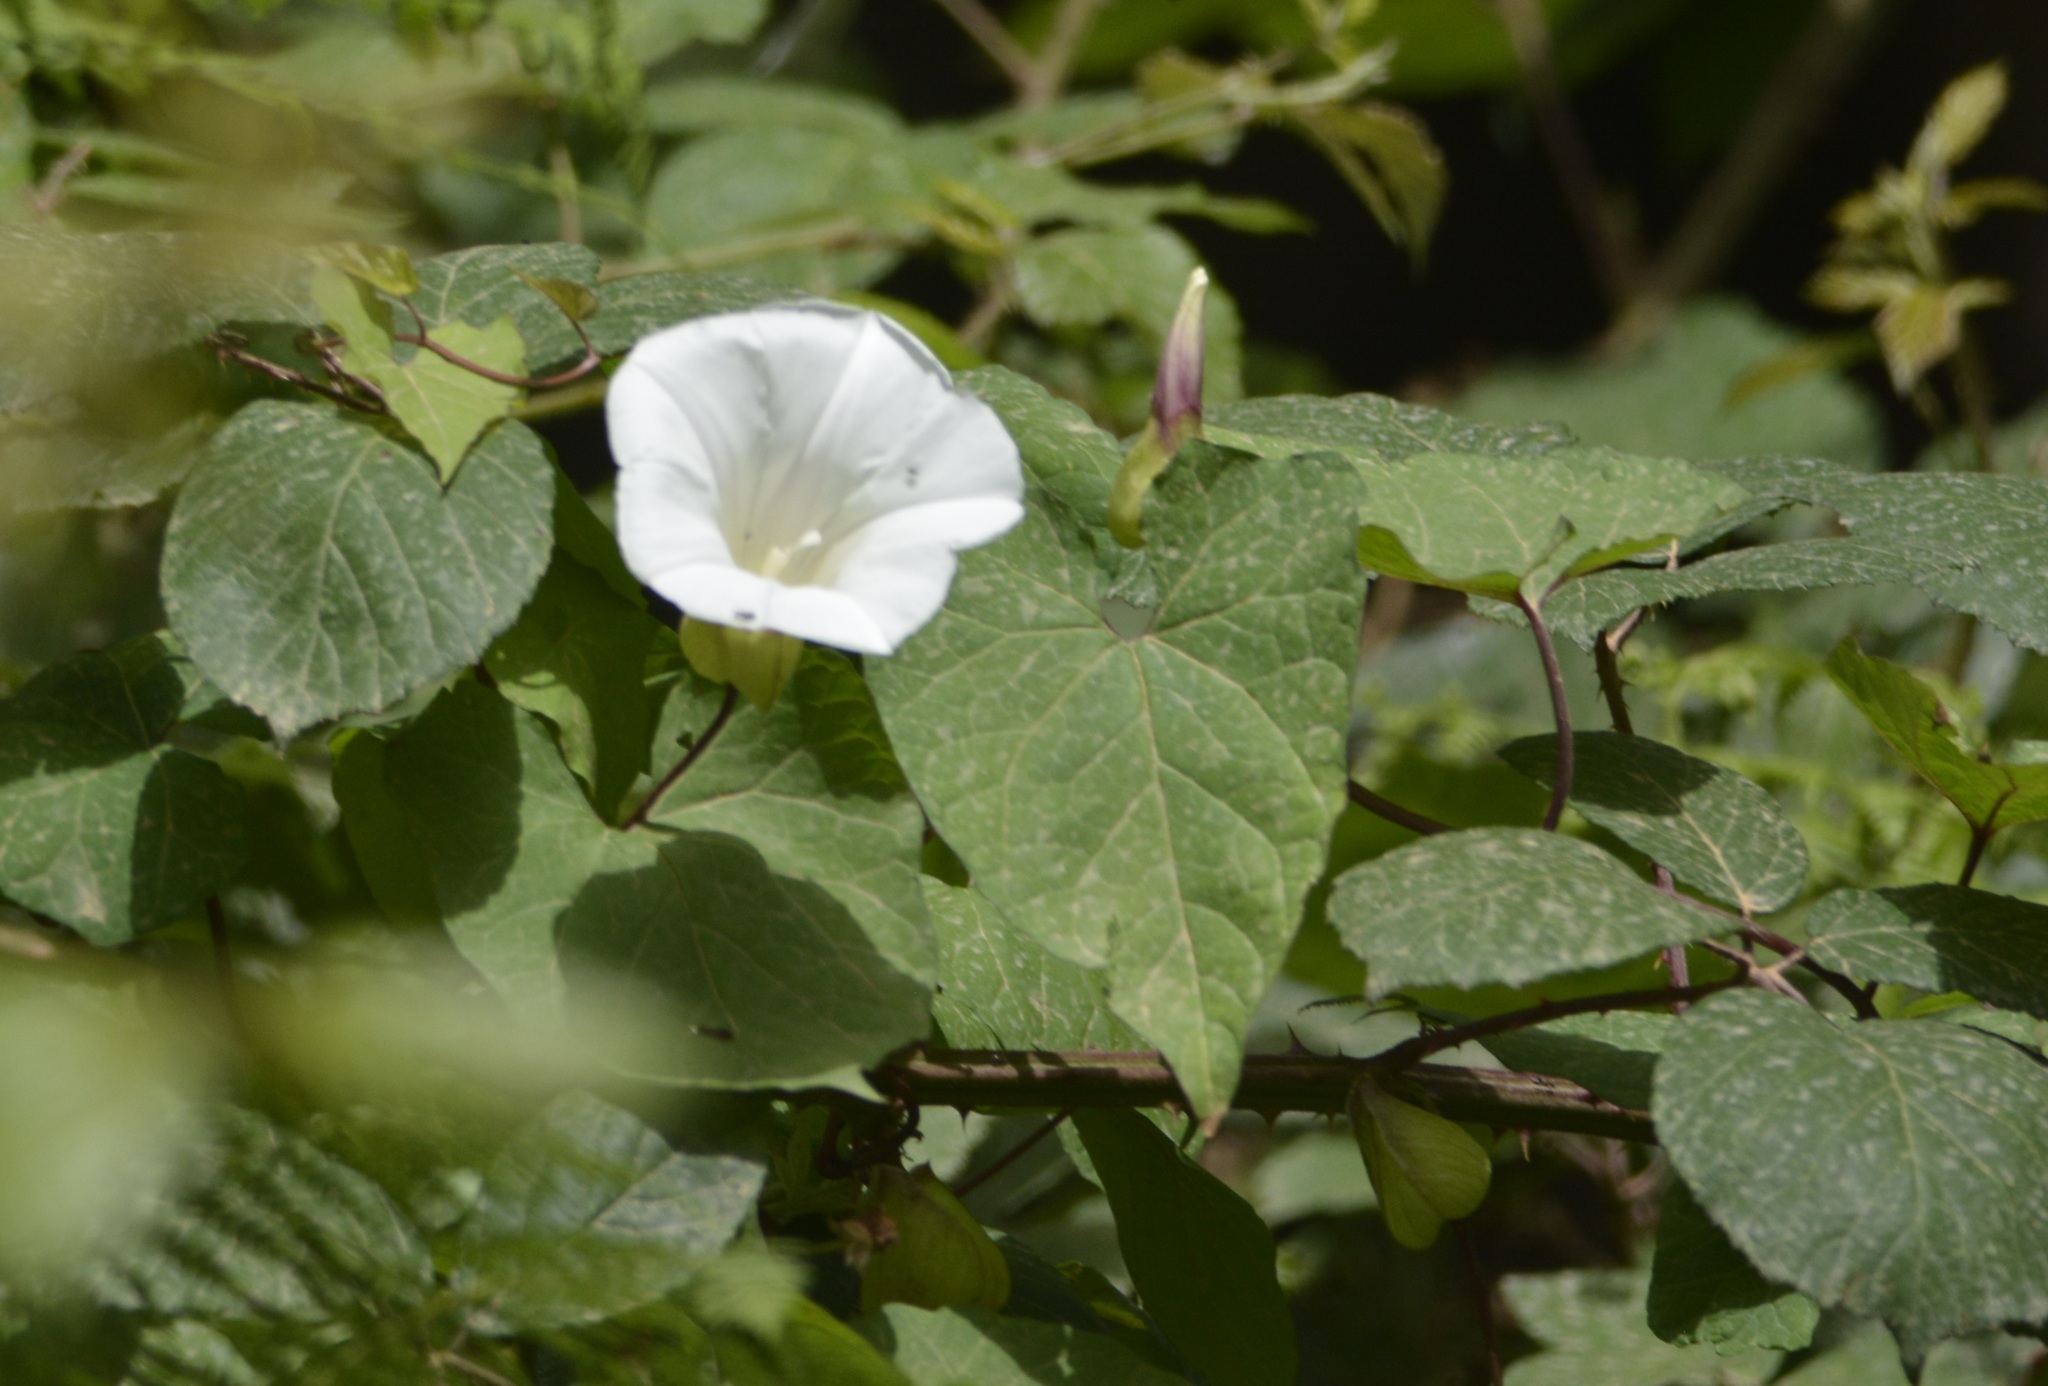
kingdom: Plantae
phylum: Tracheophyta
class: Magnoliopsida
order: Solanales
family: Convolvulaceae
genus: Calystegia
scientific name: Calystegia silvatica
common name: Large bindweed
